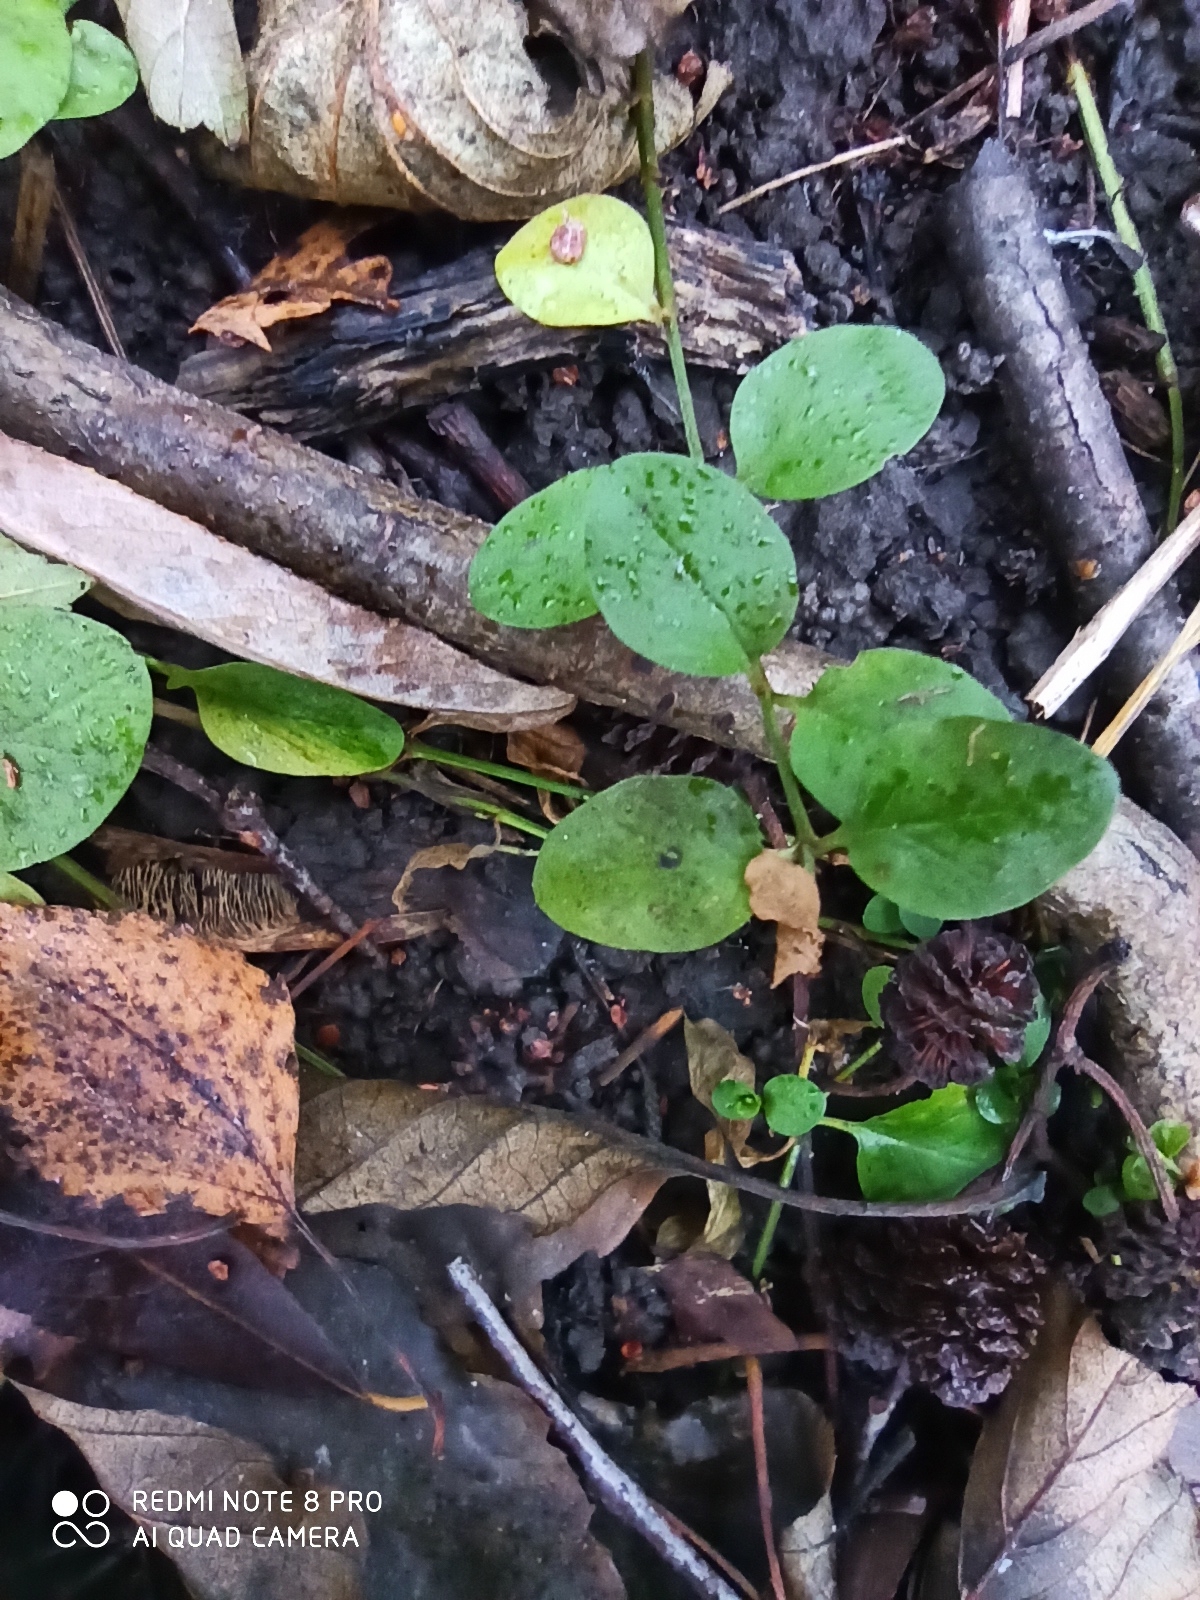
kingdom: Plantae
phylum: Tracheophyta
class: Magnoliopsida
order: Ericales
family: Primulaceae
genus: Lysimachia
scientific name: Lysimachia nummularia
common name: Moneywort
